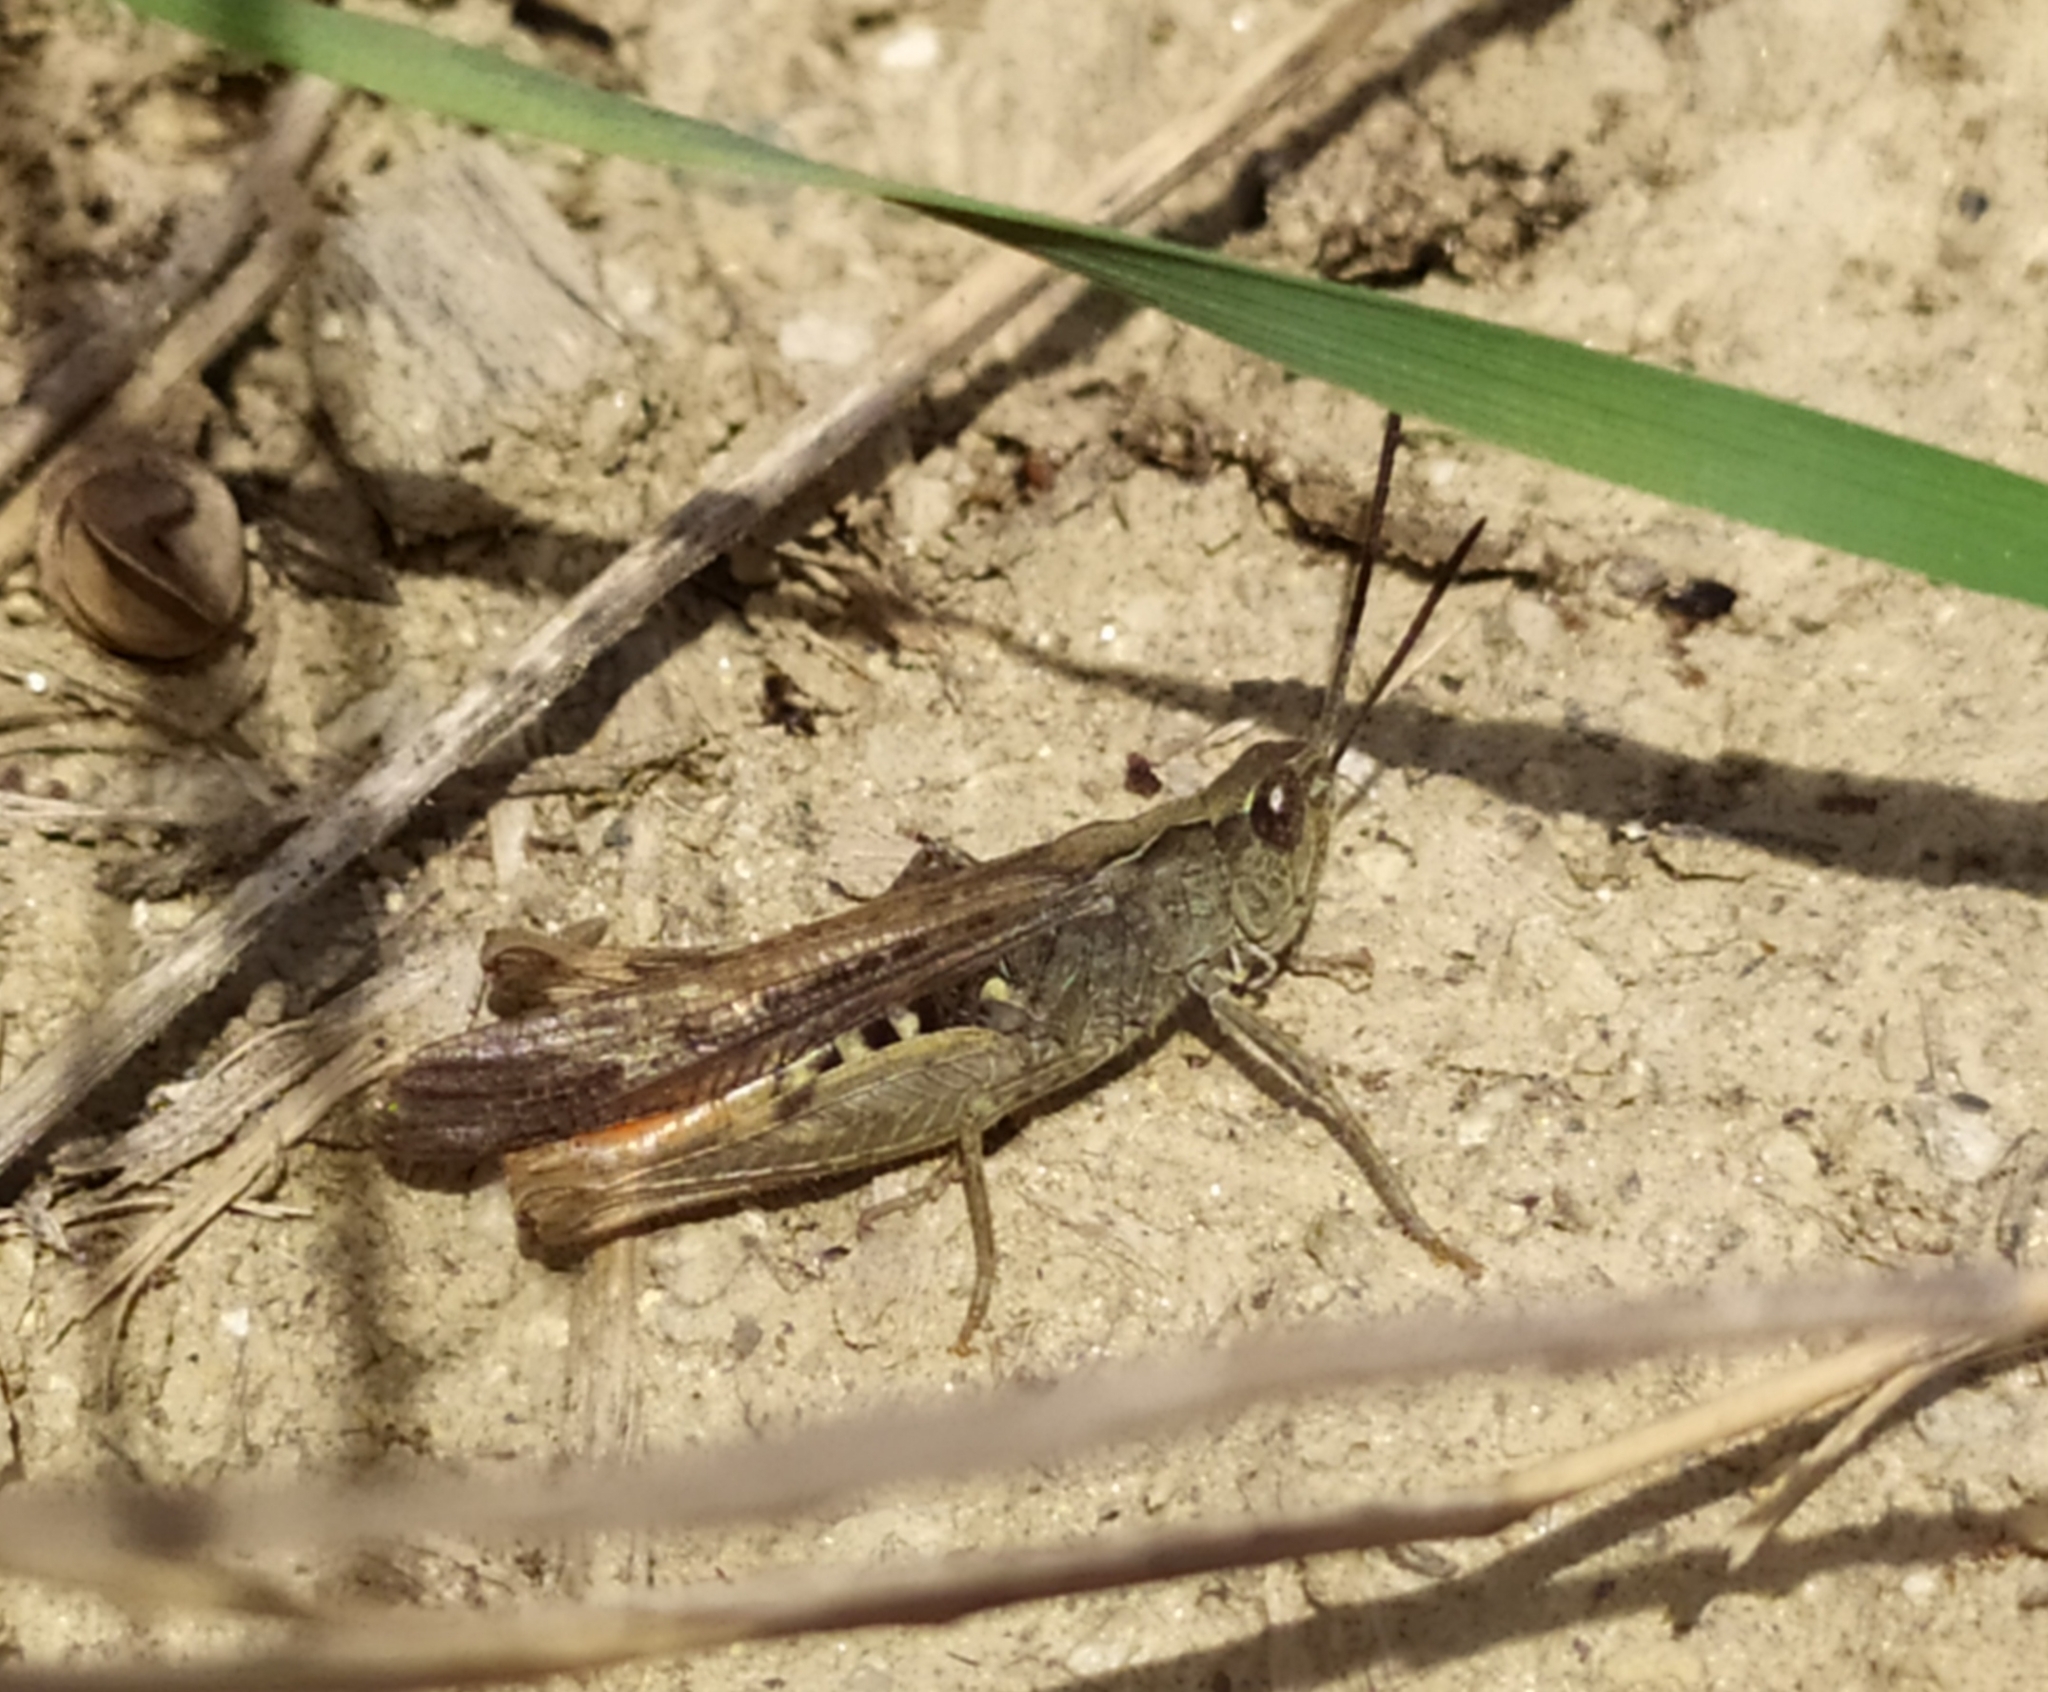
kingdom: Animalia
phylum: Arthropoda
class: Insecta
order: Orthoptera
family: Acrididae
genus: Chorthippus
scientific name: Chorthippus brunneus
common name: Field grasshopper
